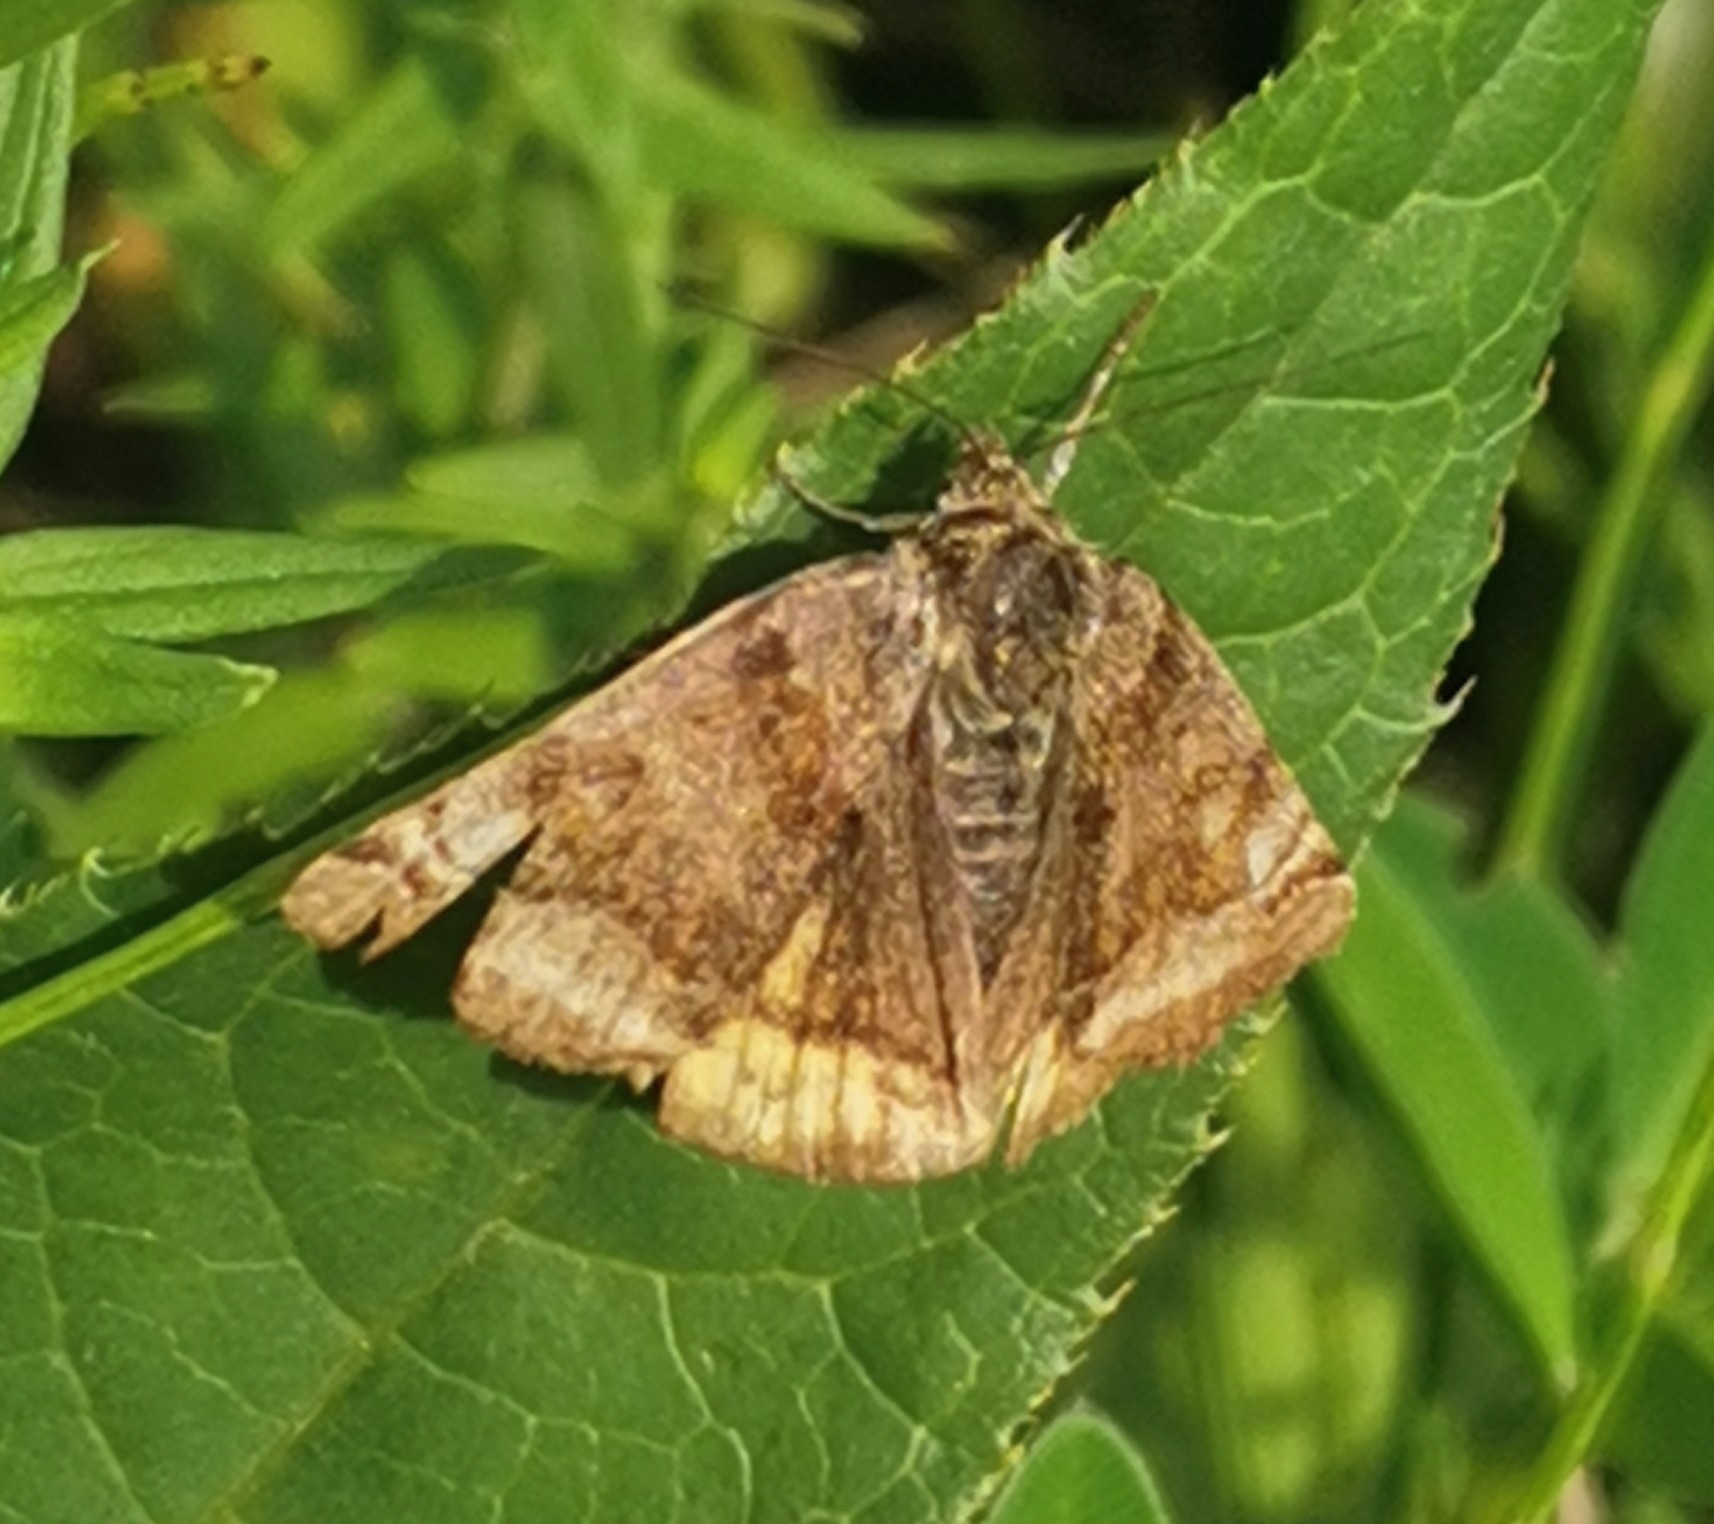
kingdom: Animalia
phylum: Arthropoda
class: Insecta
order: Lepidoptera
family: Erebidae
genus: Euclidia
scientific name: Euclidia glyphica
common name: Burnet companion
